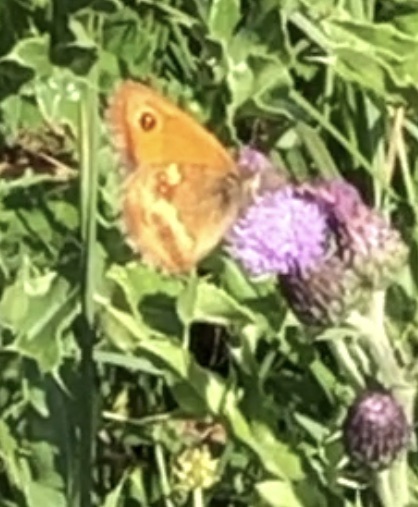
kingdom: Animalia
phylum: Arthropoda
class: Insecta
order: Lepidoptera
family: Nymphalidae
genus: Pyronia
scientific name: Pyronia tithonus
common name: Gatekeeper
